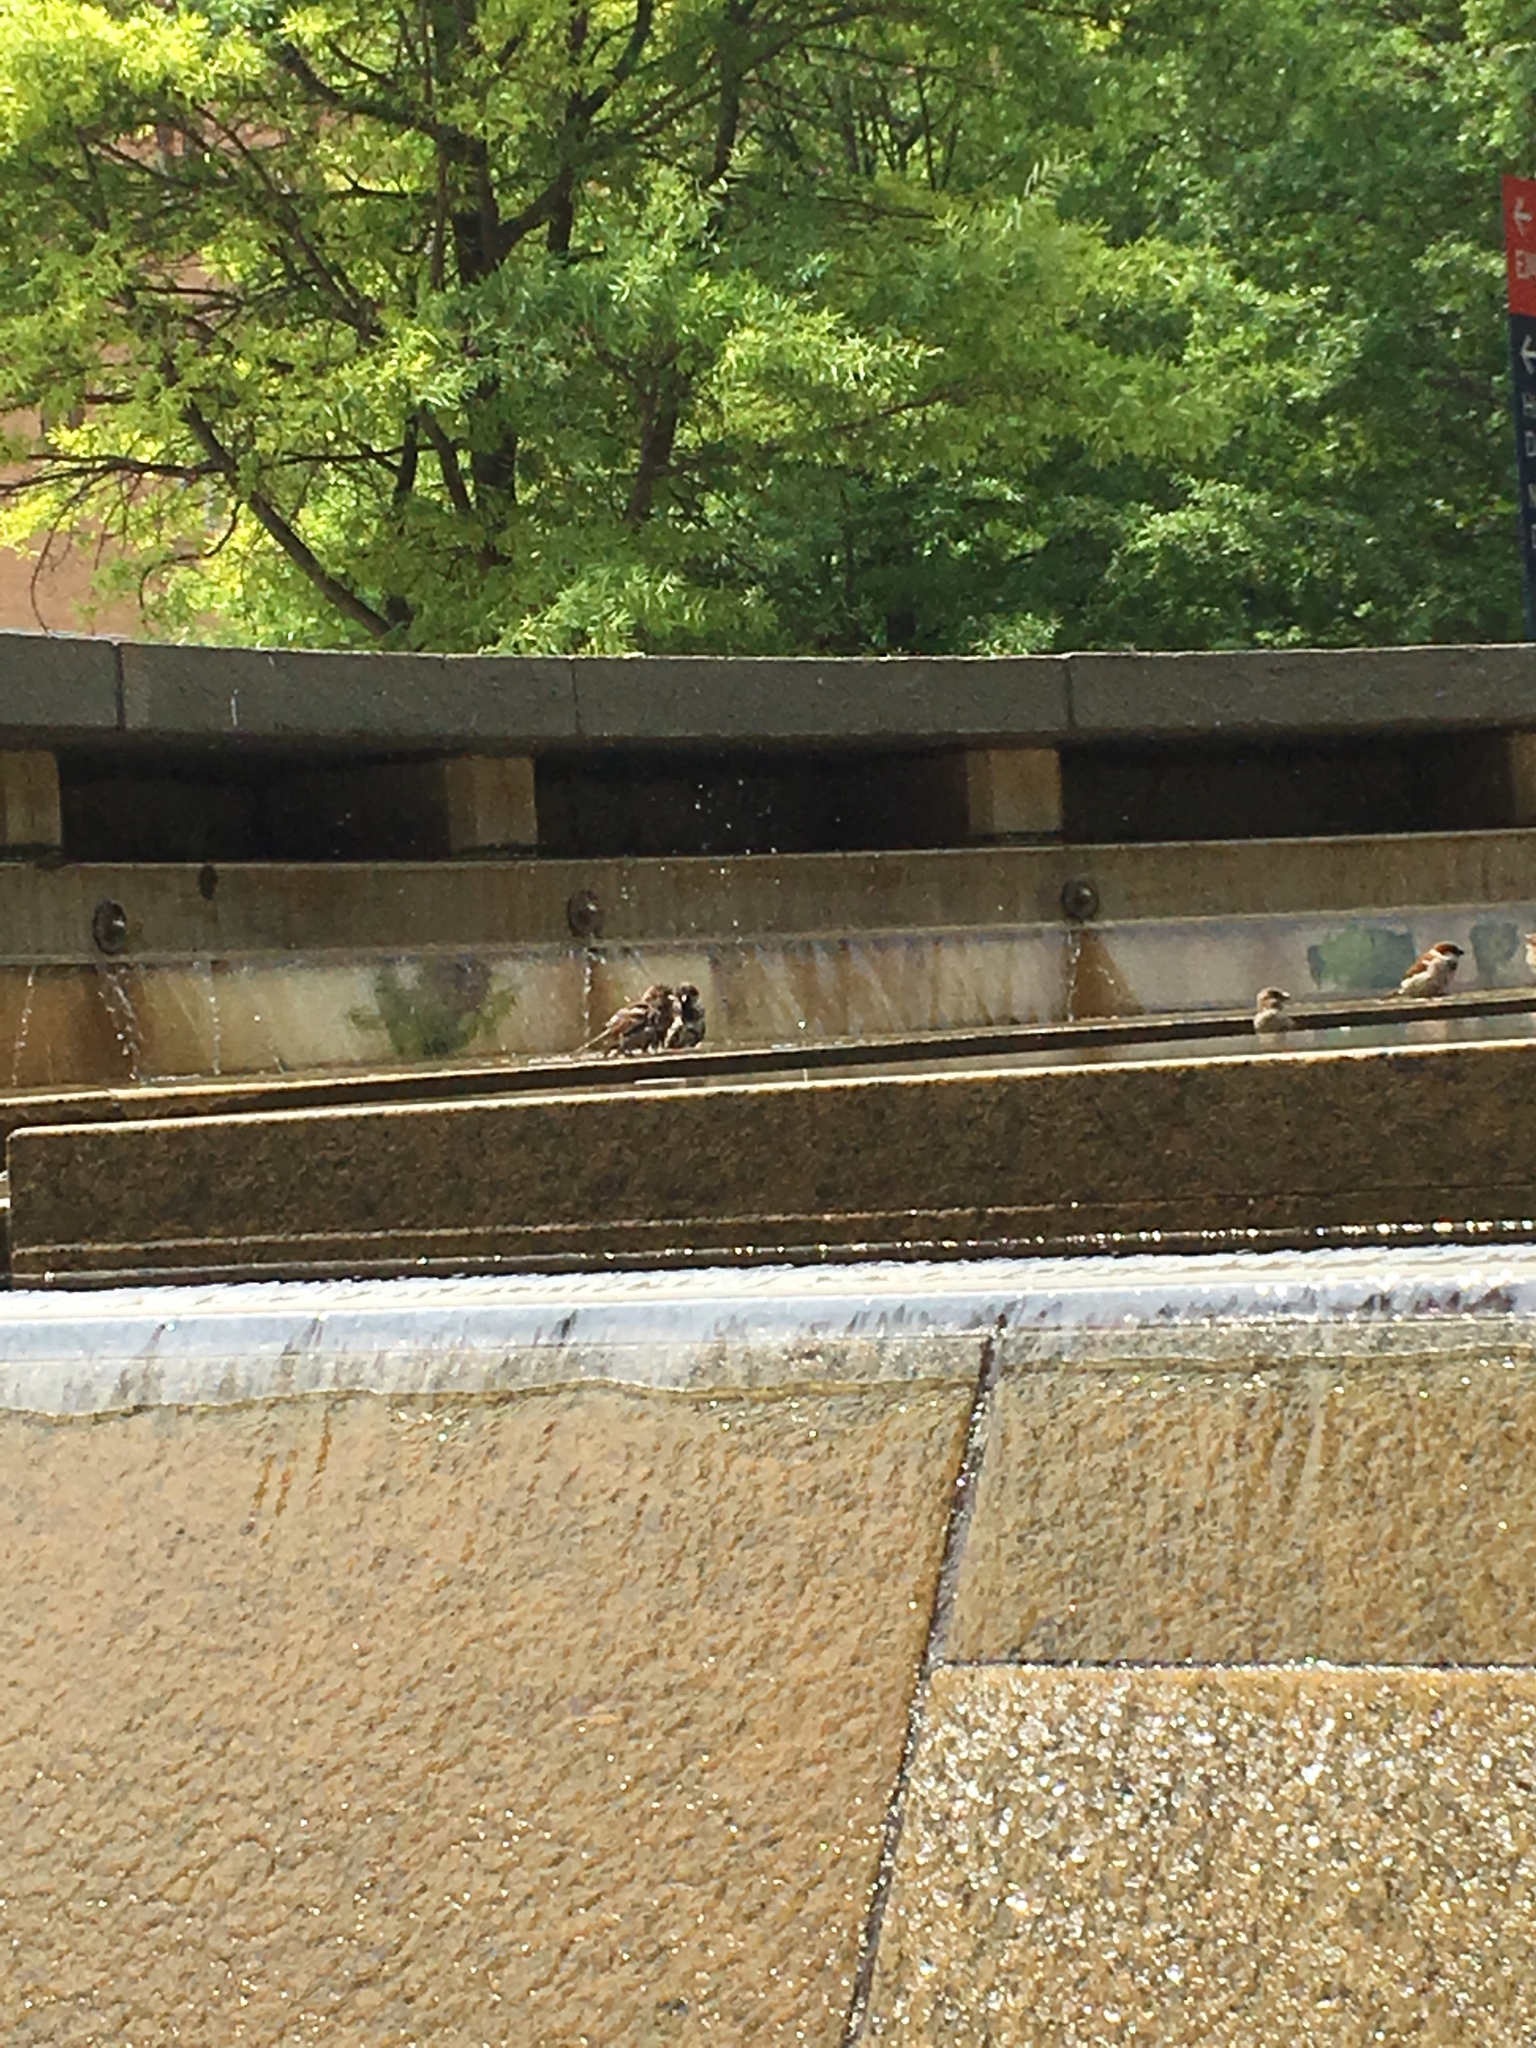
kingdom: Animalia
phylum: Chordata
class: Aves
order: Passeriformes
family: Passeridae
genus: Passer
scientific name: Passer domesticus
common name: House sparrow
